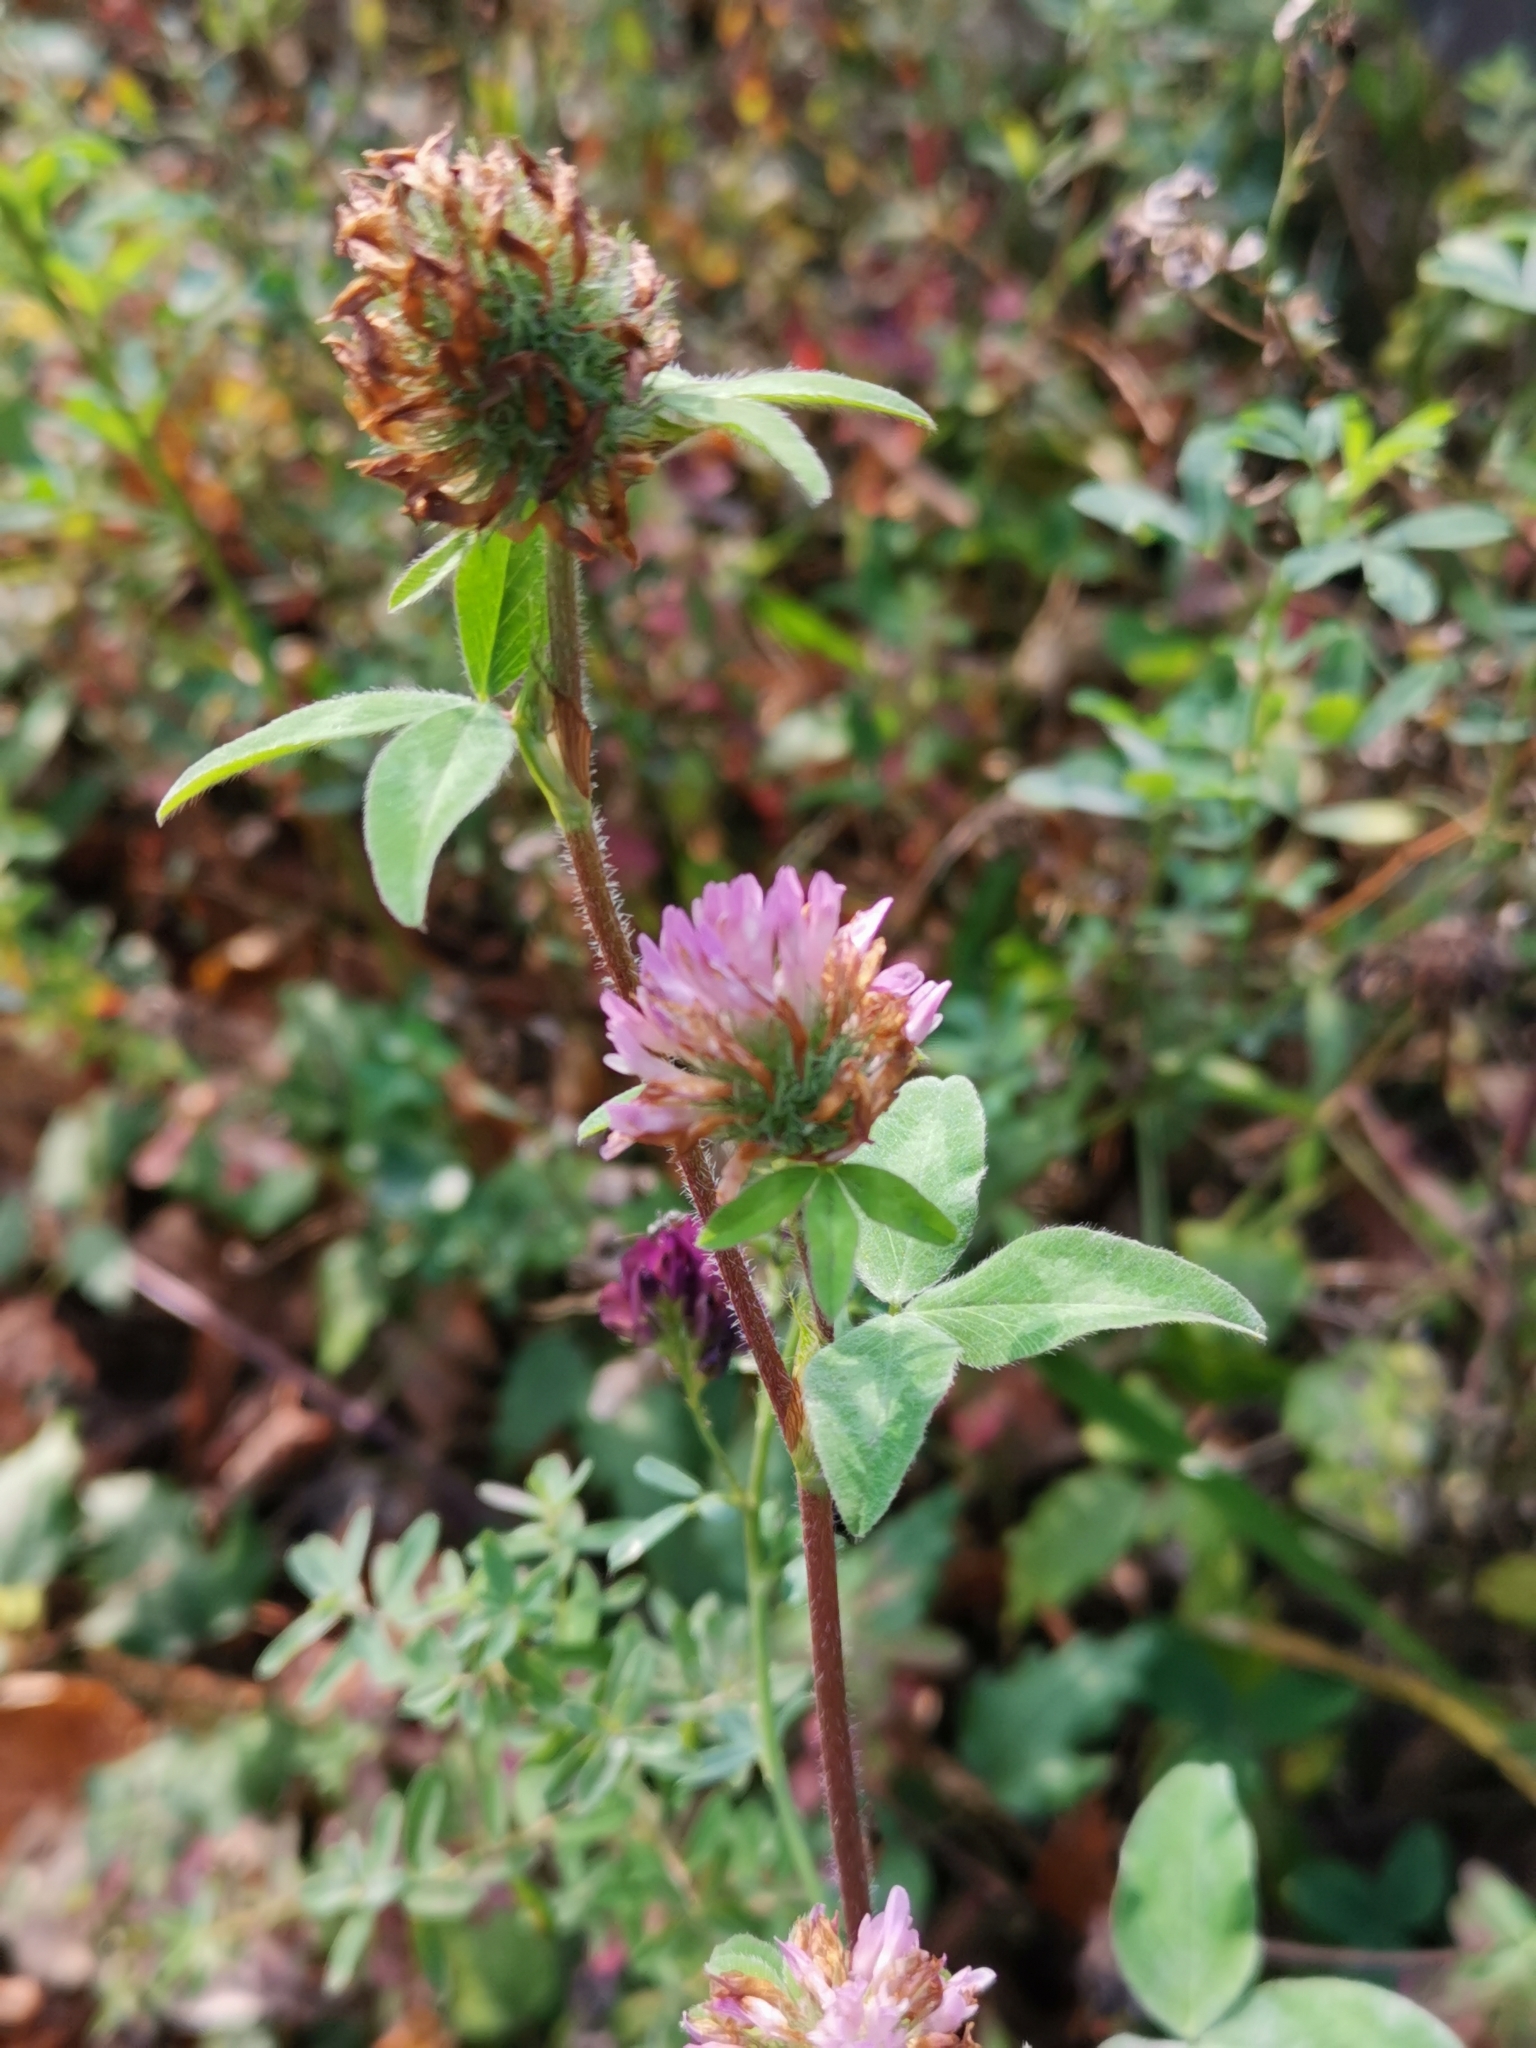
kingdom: Plantae
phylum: Tracheophyta
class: Magnoliopsida
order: Fabales
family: Fabaceae
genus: Trifolium
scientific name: Trifolium pratense
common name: Red clover
